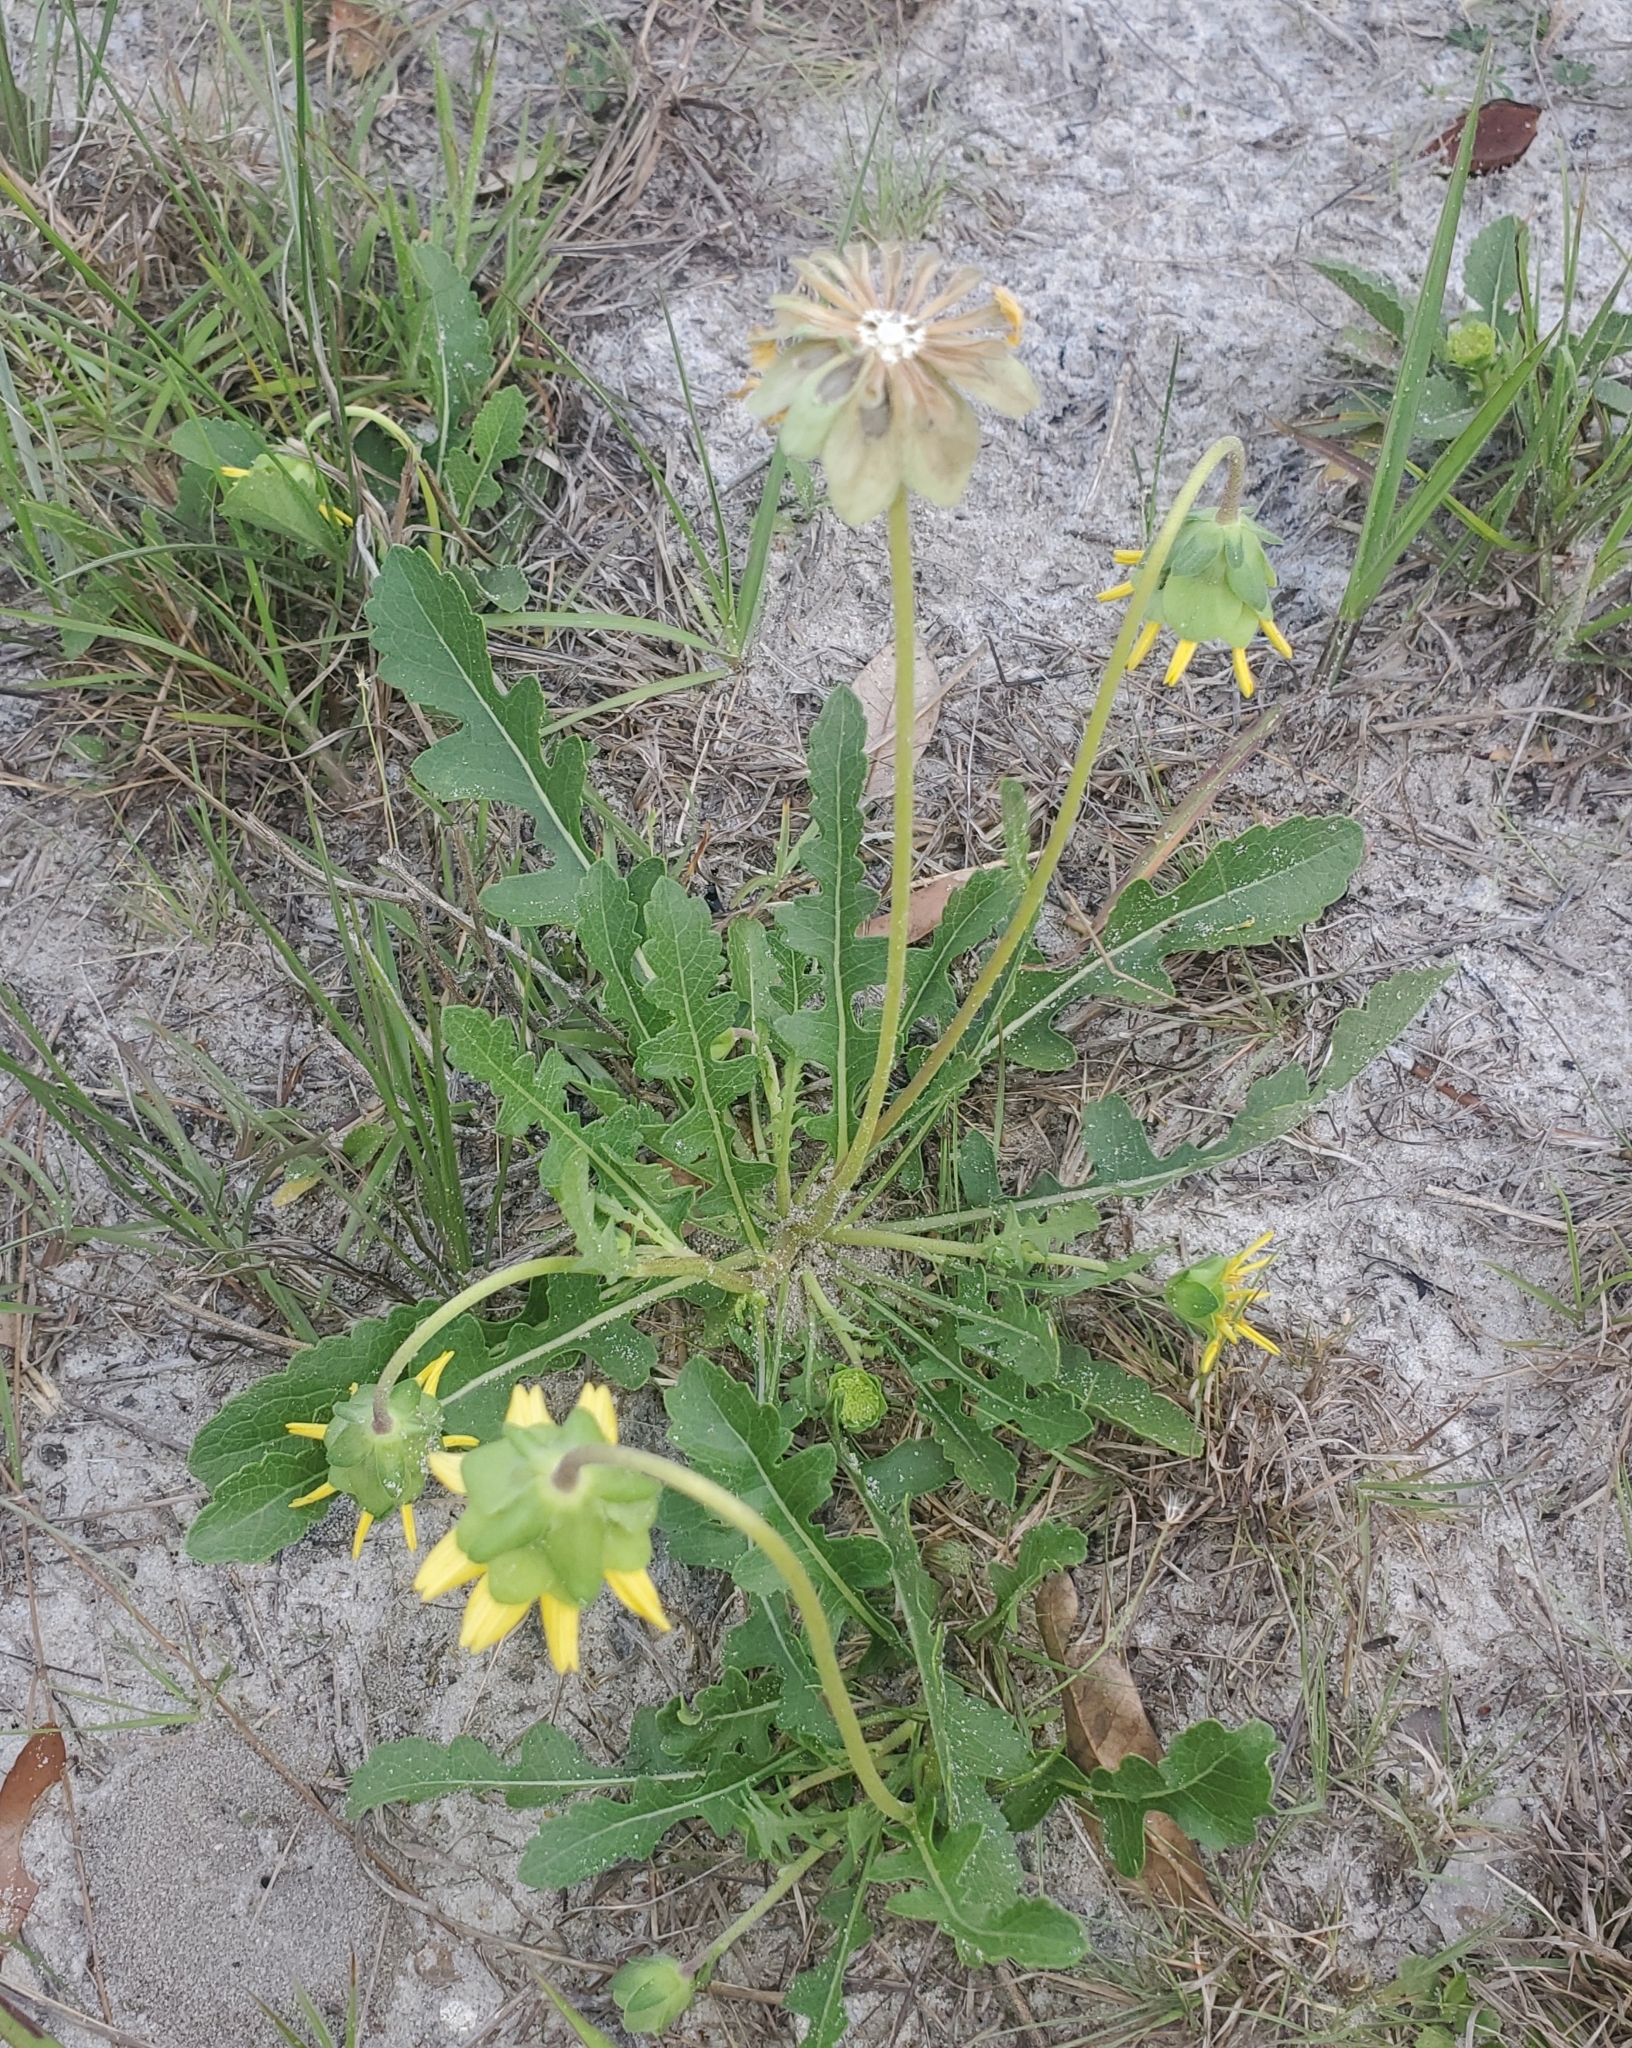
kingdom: Plantae
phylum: Tracheophyta
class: Magnoliopsida
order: Asterales
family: Asteraceae
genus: Berlandiera
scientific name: Berlandiera subacaulis
